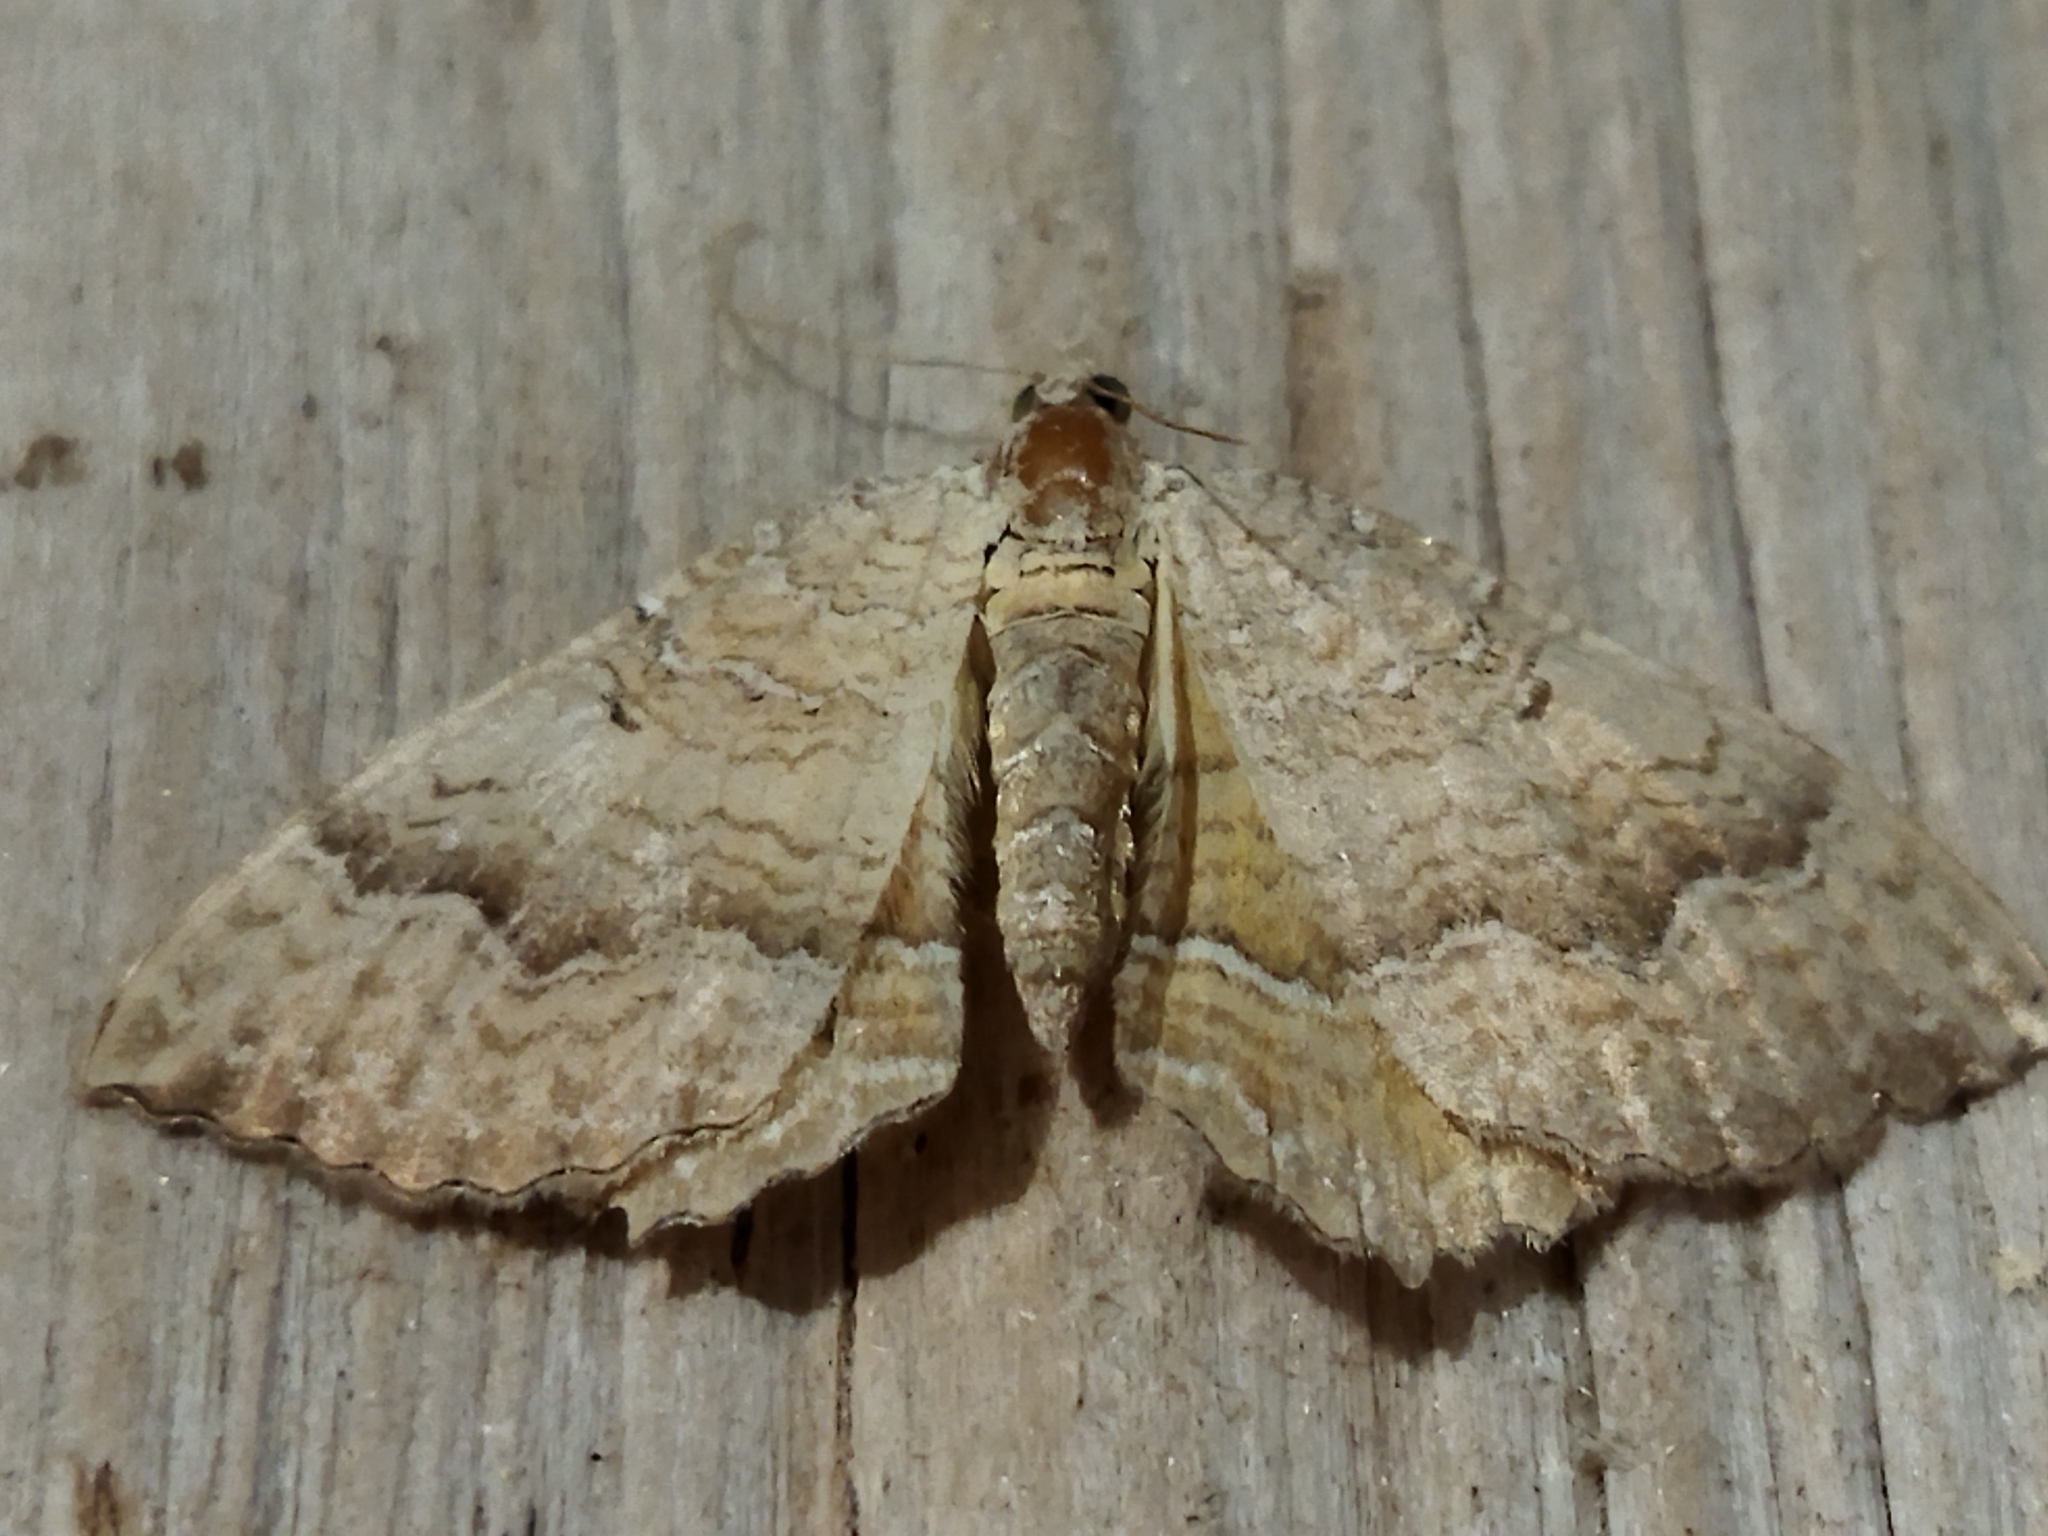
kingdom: Animalia
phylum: Arthropoda
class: Insecta
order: Lepidoptera
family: Geometridae
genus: Camptogramma
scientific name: Camptogramma bilineata
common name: Yellow shell
